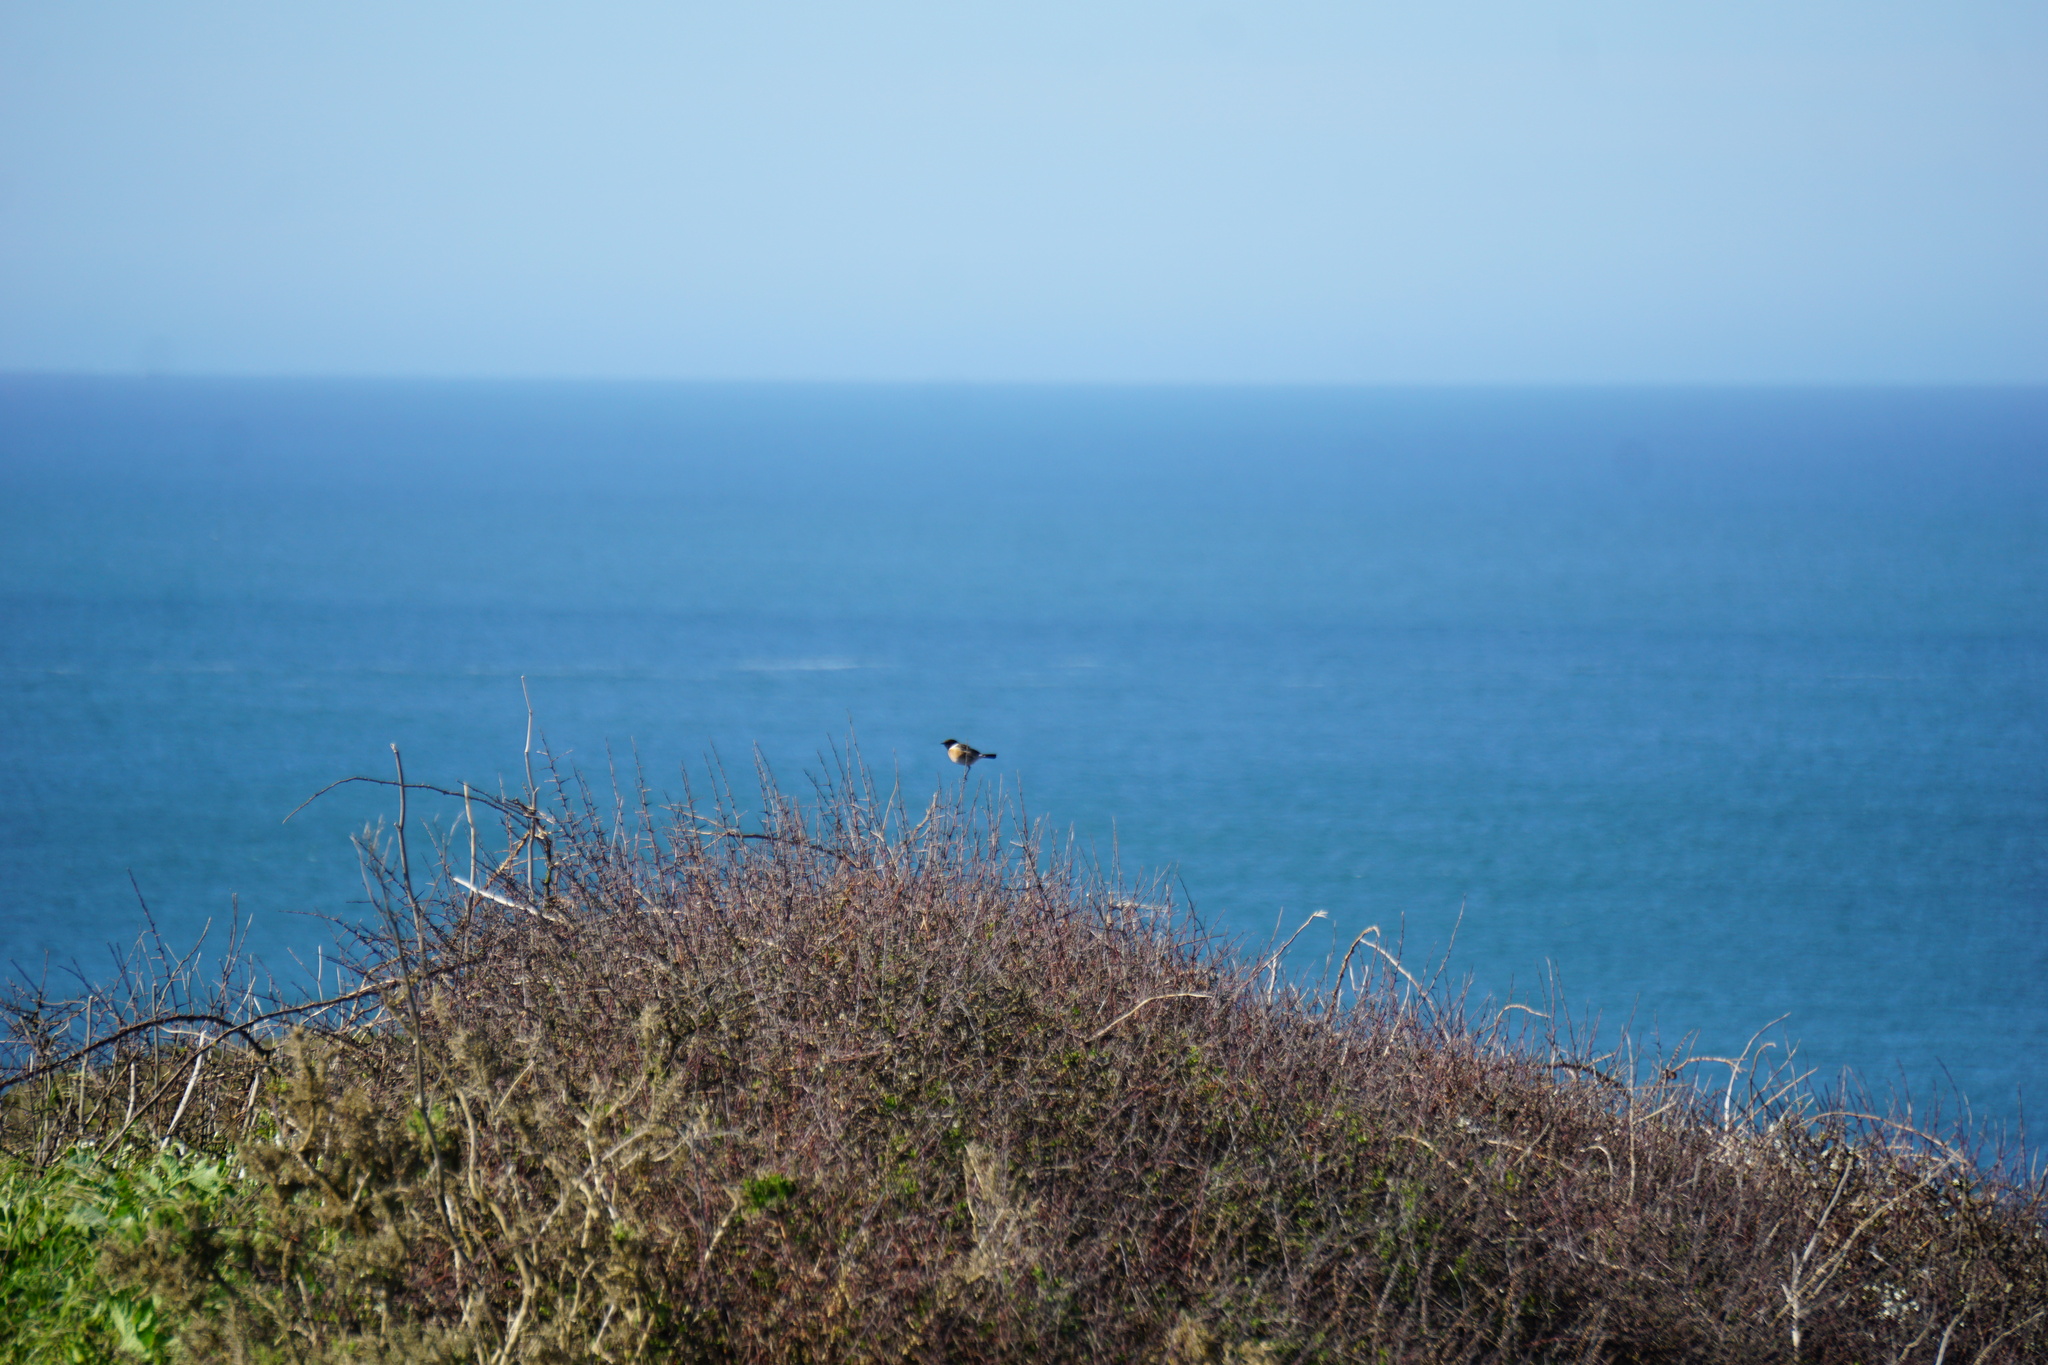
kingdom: Animalia
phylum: Chordata
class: Aves
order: Passeriformes
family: Muscicapidae
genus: Saxicola
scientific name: Saxicola rubicola
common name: European stonechat
